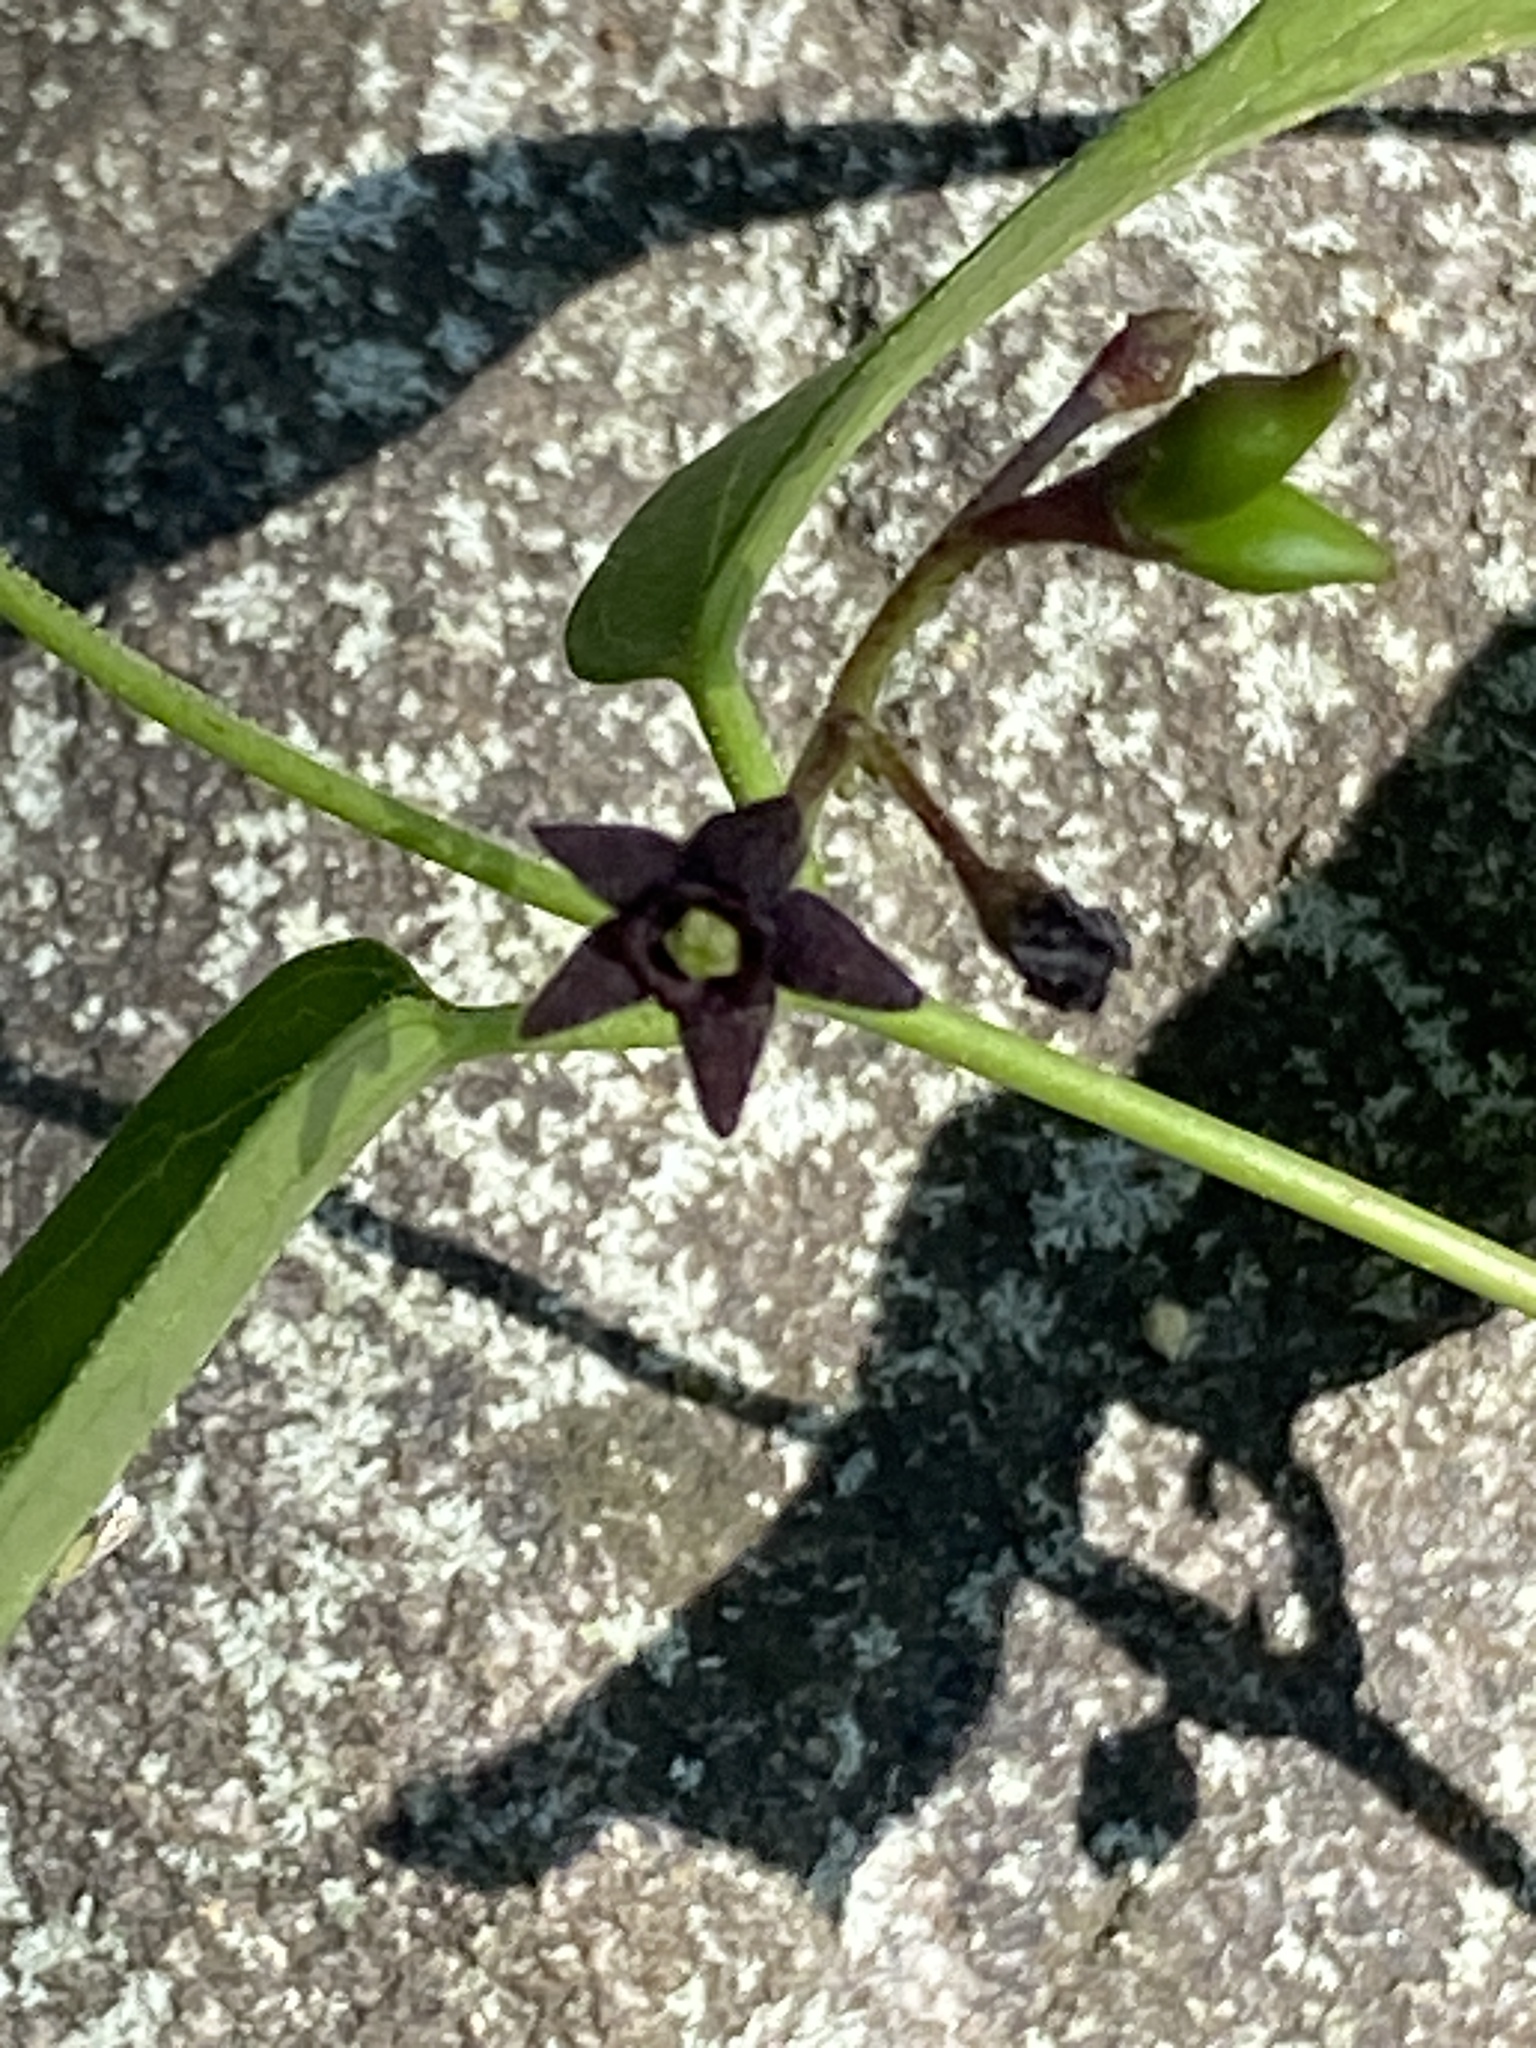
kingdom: Plantae
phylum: Tracheophyta
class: Magnoliopsida
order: Gentianales
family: Apocynaceae
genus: Vincetoxicum
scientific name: Vincetoxicum nigrum
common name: Black swallow-wort
